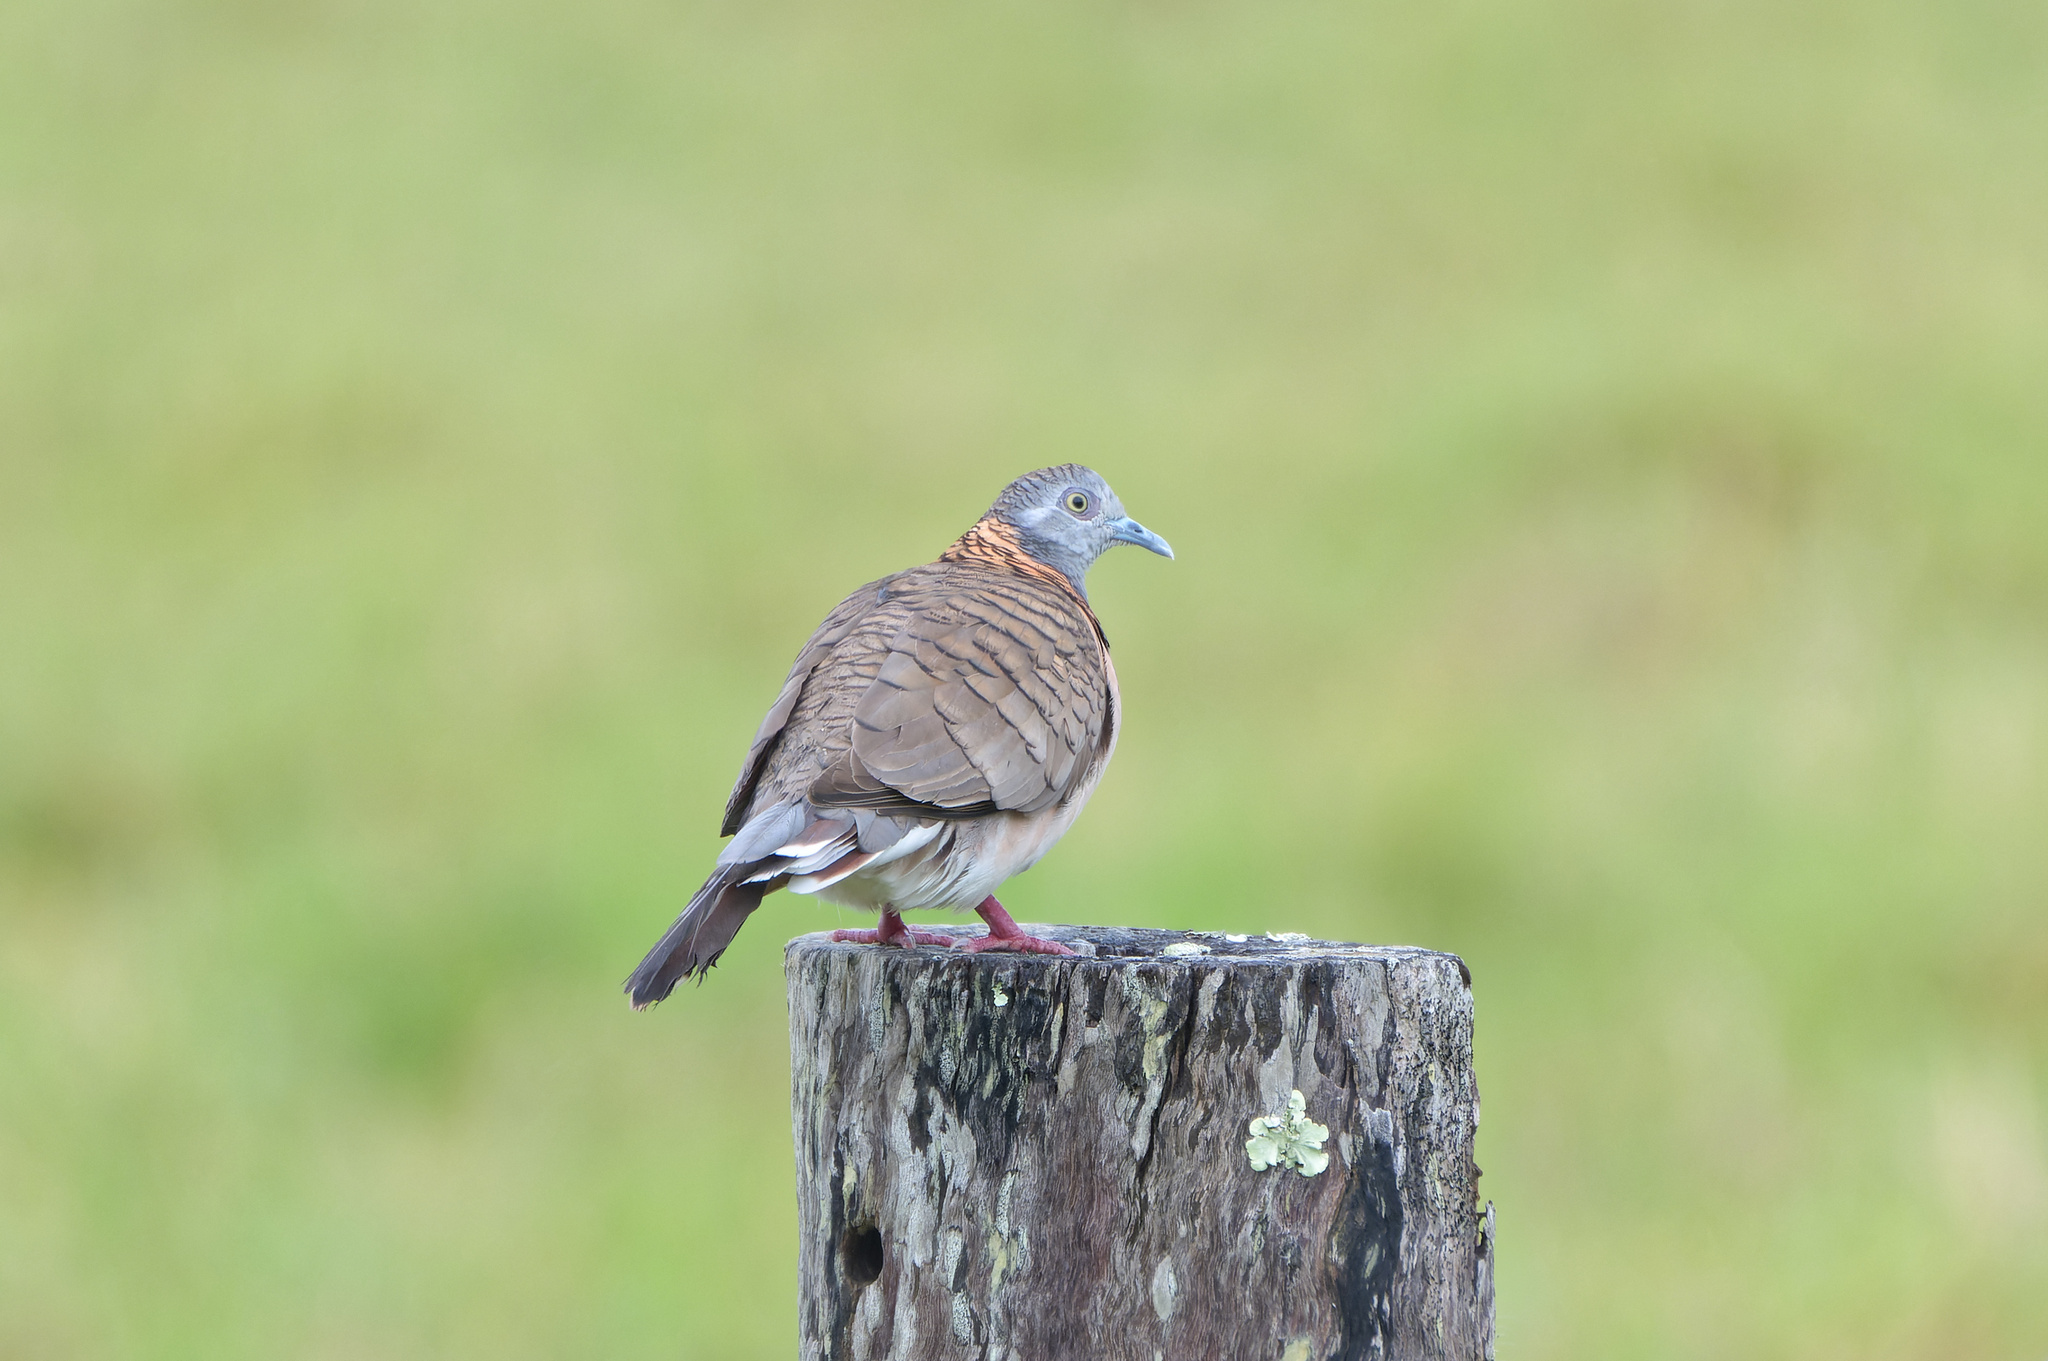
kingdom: Animalia
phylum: Chordata
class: Aves
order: Columbiformes
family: Columbidae
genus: Geopelia
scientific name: Geopelia humeralis
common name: Bar-shouldered dove
